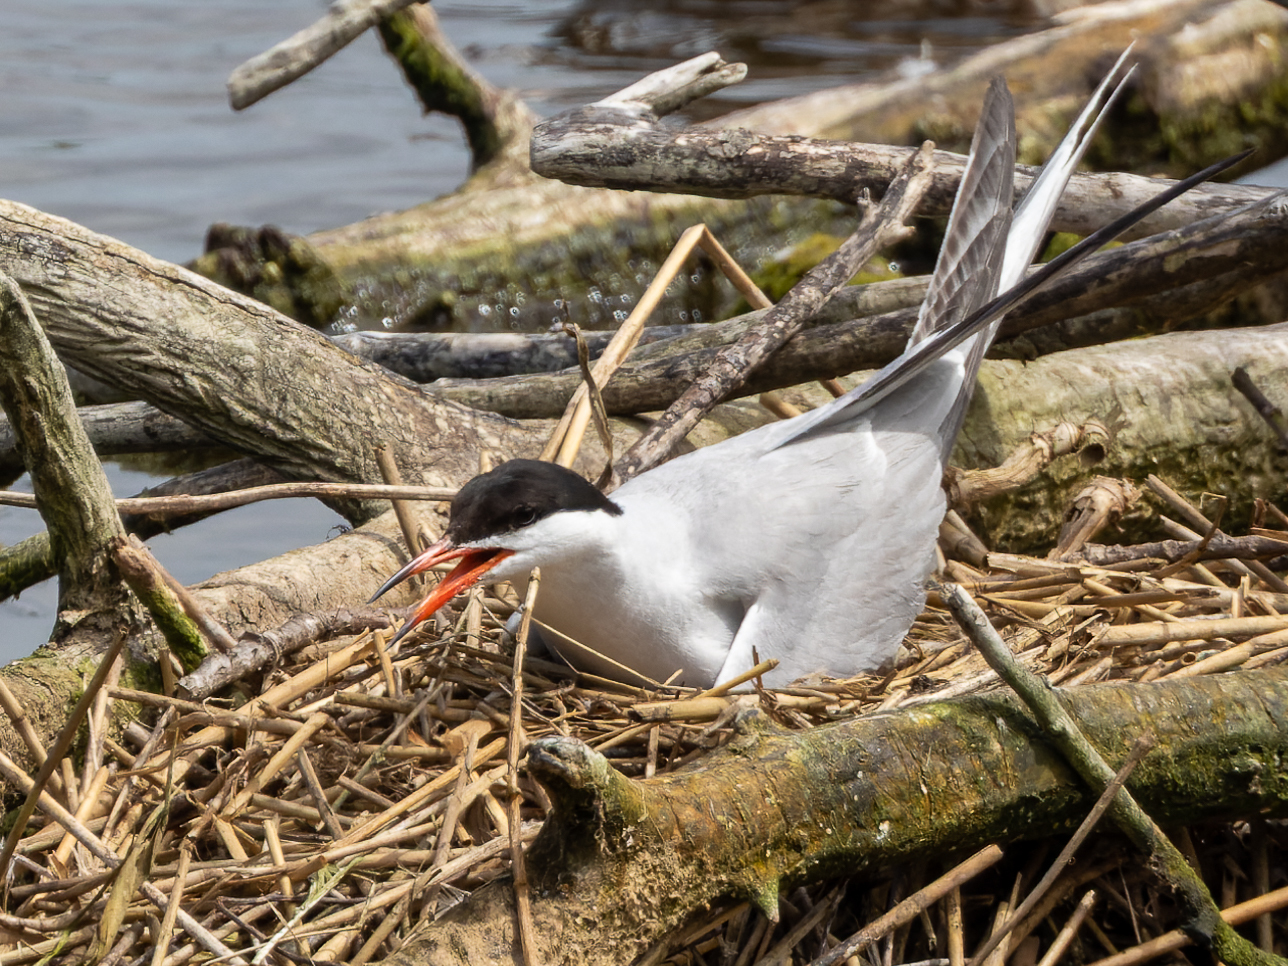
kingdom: Animalia
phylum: Chordata
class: Aves
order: Charadriiformes
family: Laridae
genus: Sterna
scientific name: Sterna hirundo
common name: Common tern
